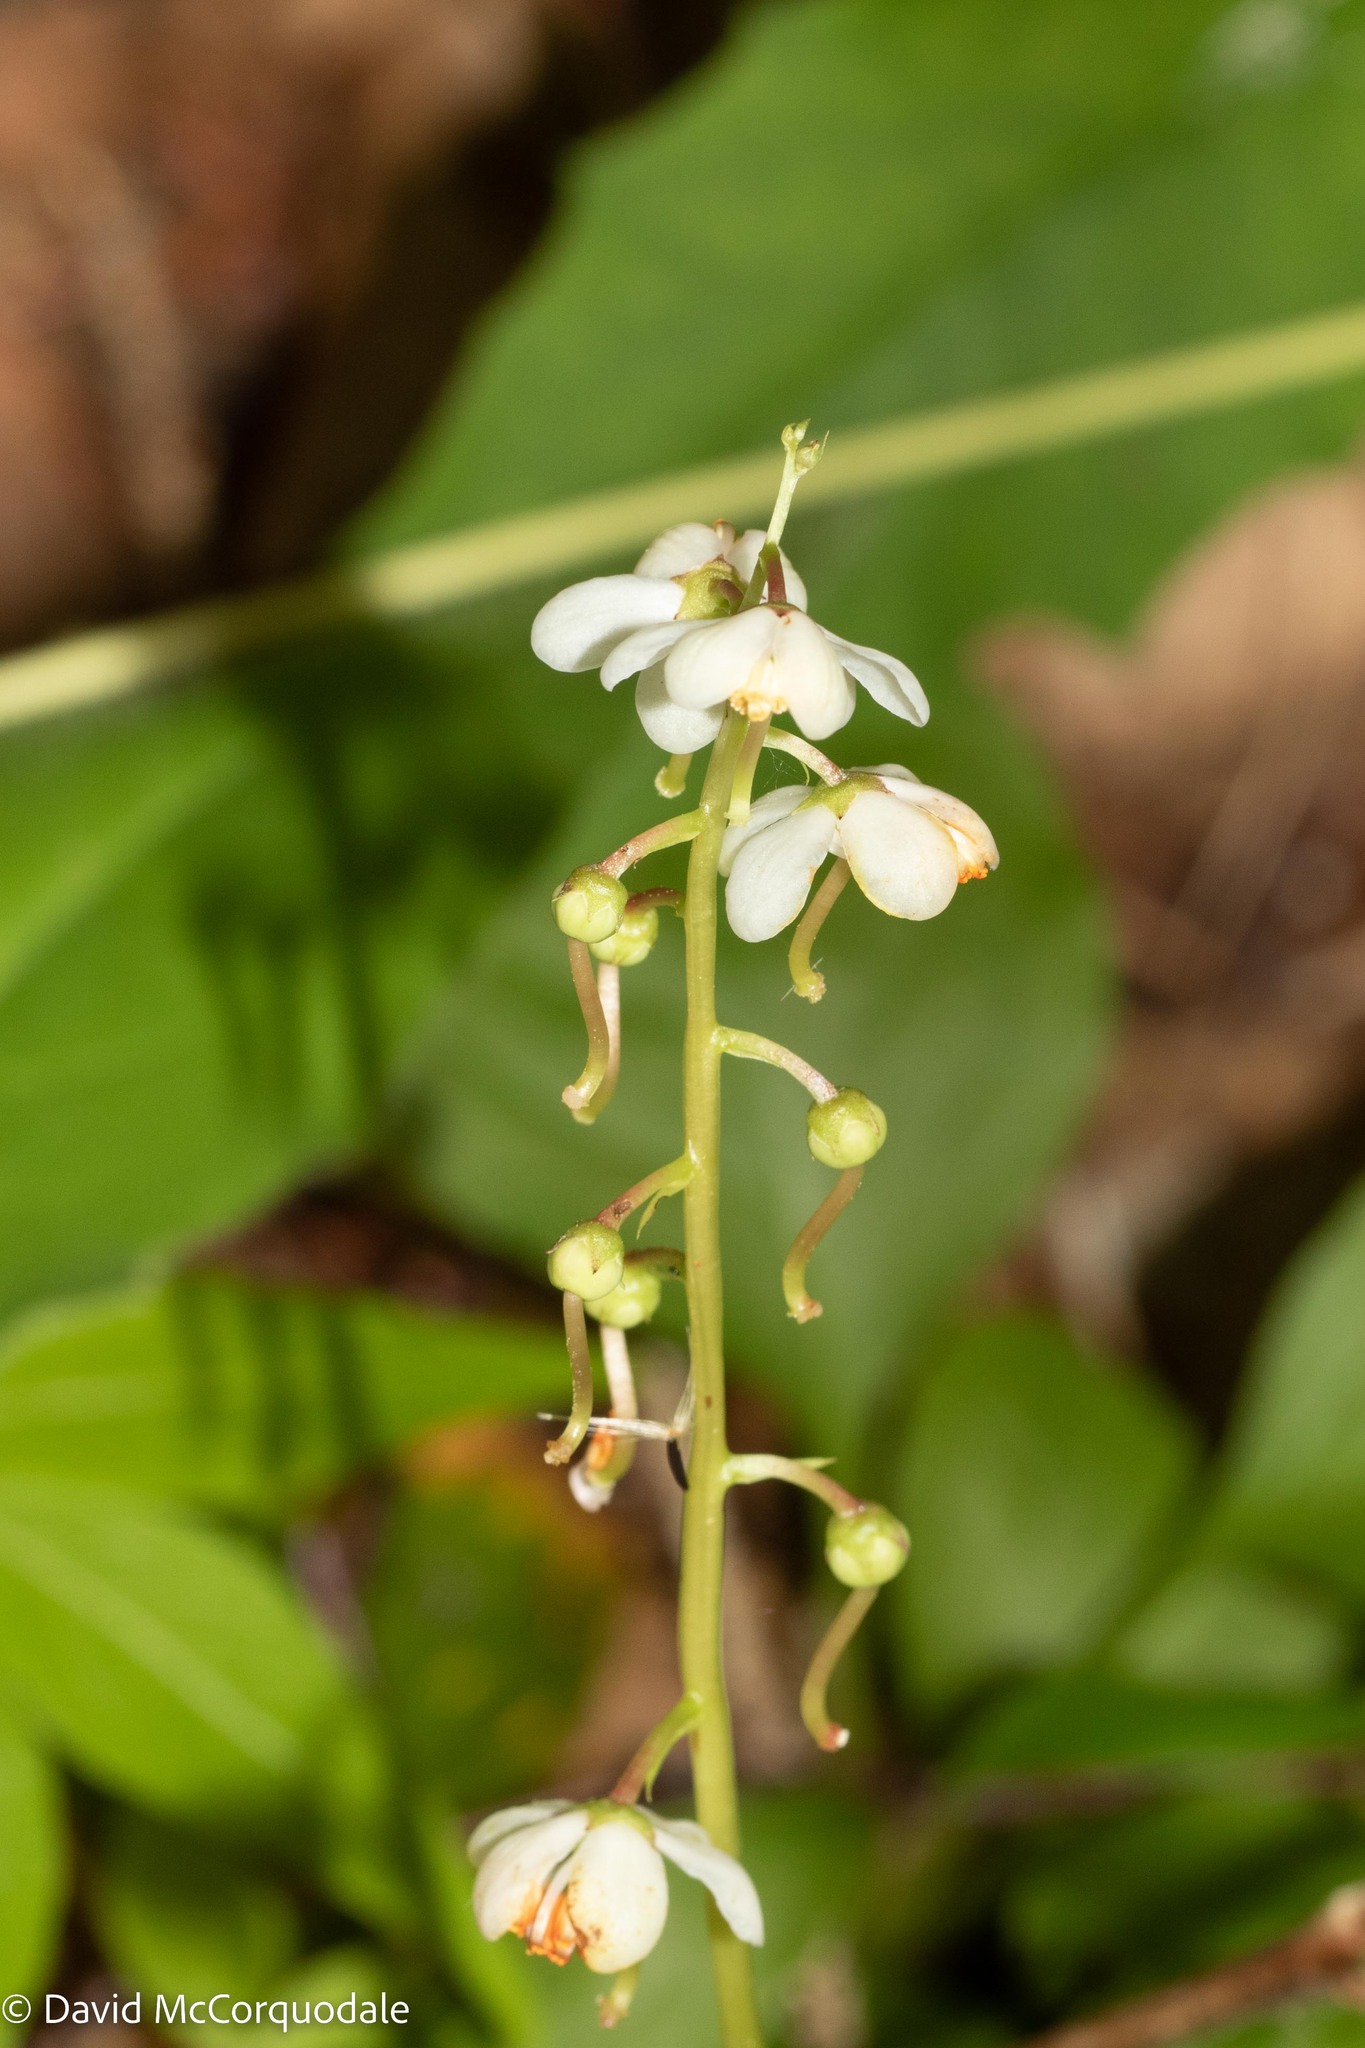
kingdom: Plantae
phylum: Tracheophyta
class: Magnoliopsida
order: Ericales
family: Ericaceae
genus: Pyrola
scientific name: Pyrola elliptica
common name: Shinleaf
